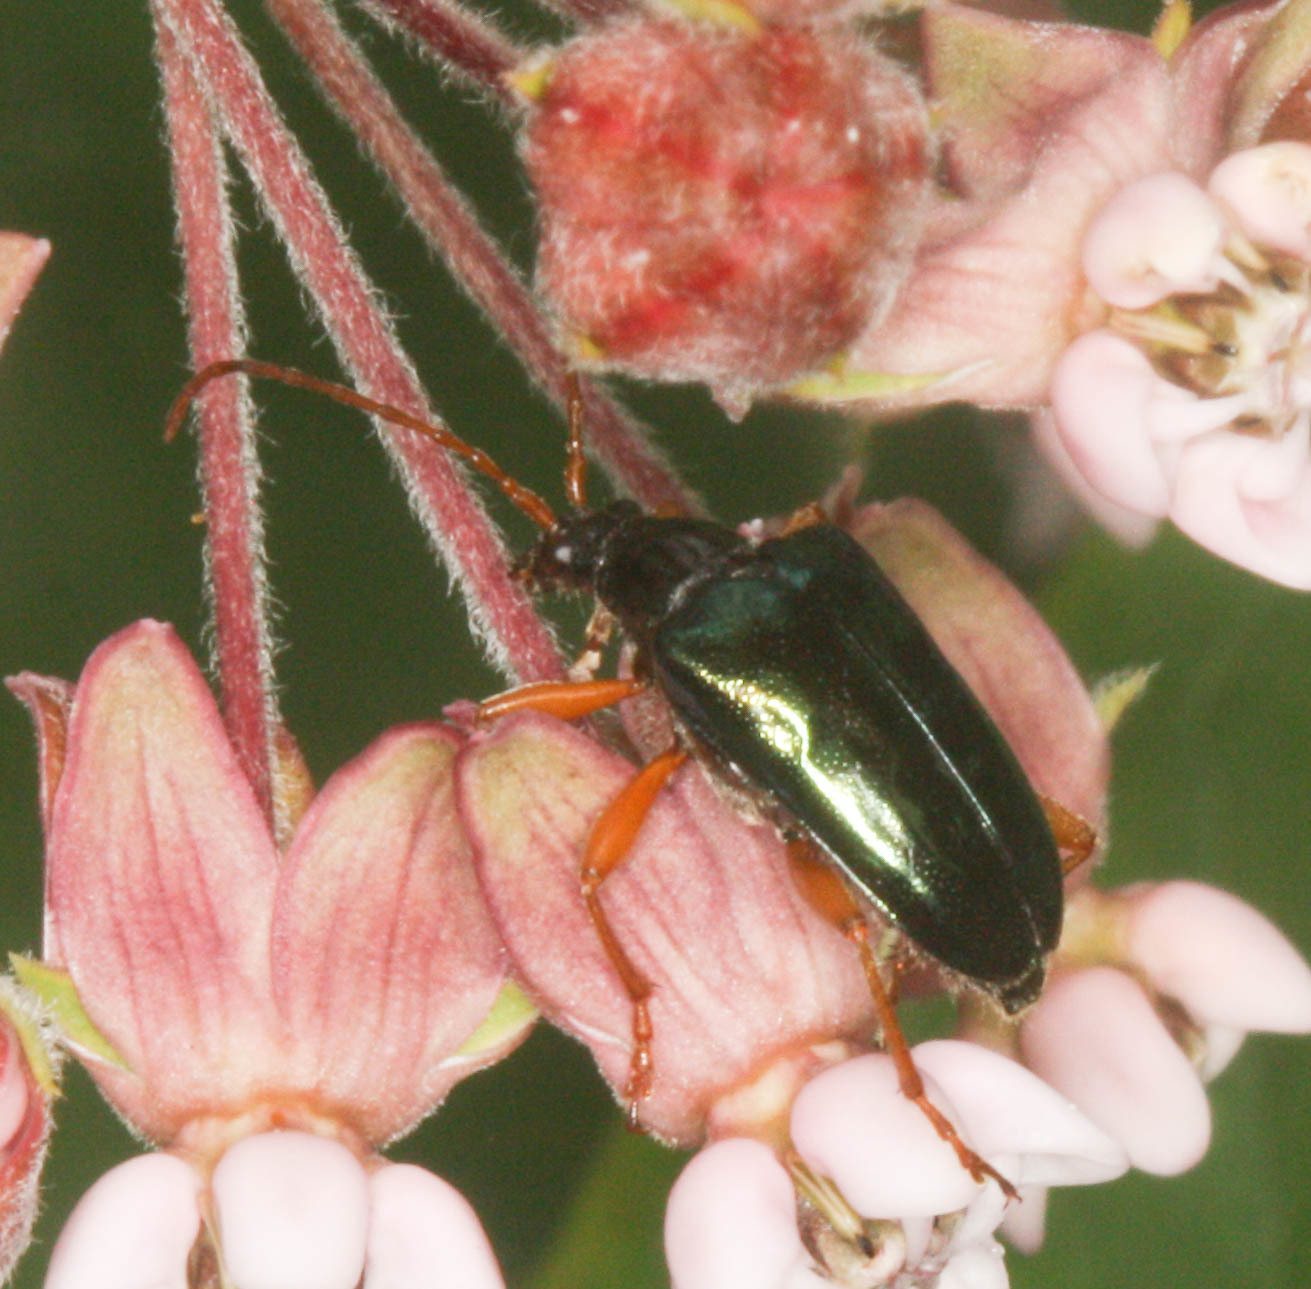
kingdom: Animalia
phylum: Arthropoda
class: Insecta
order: Coleoptera
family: Cerambycidae
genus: Gaurotes
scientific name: Gaurotes cyanipennis
